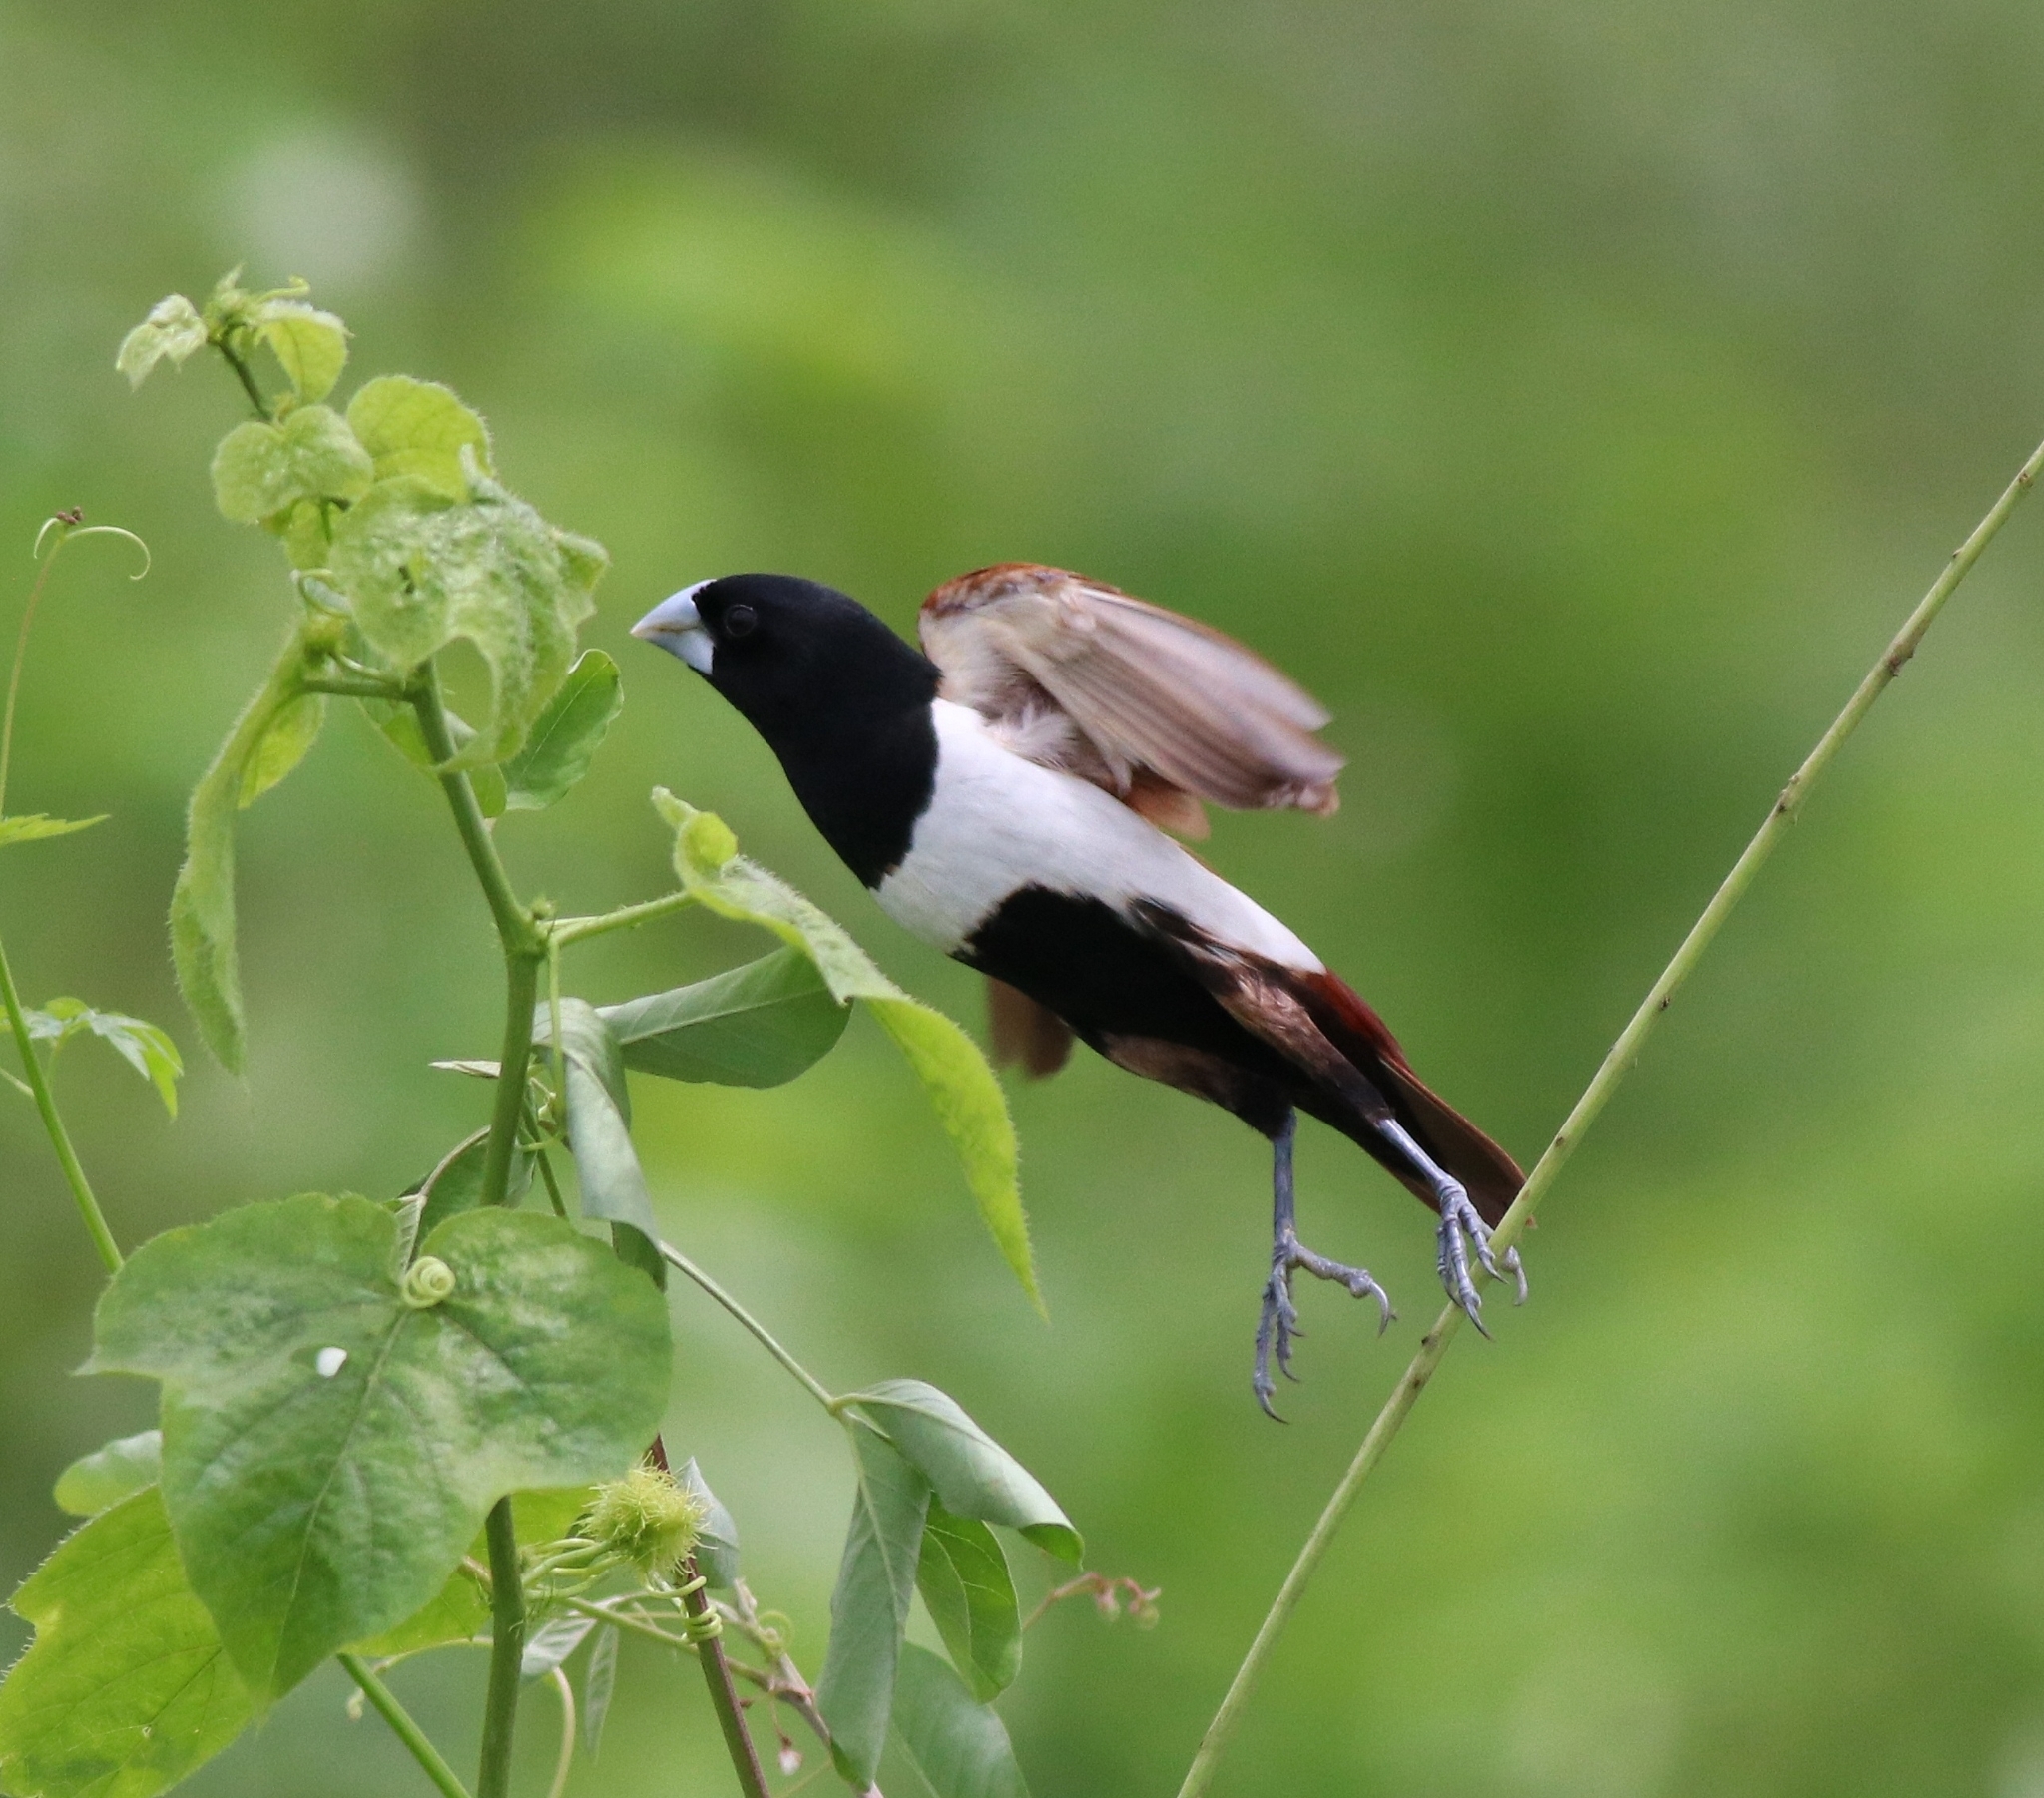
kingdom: Animalia
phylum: Chordata
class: Aves
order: Passeriformes
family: Estrildidae
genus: Lonchura
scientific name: Lonchura malacca
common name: Tricolored munia
